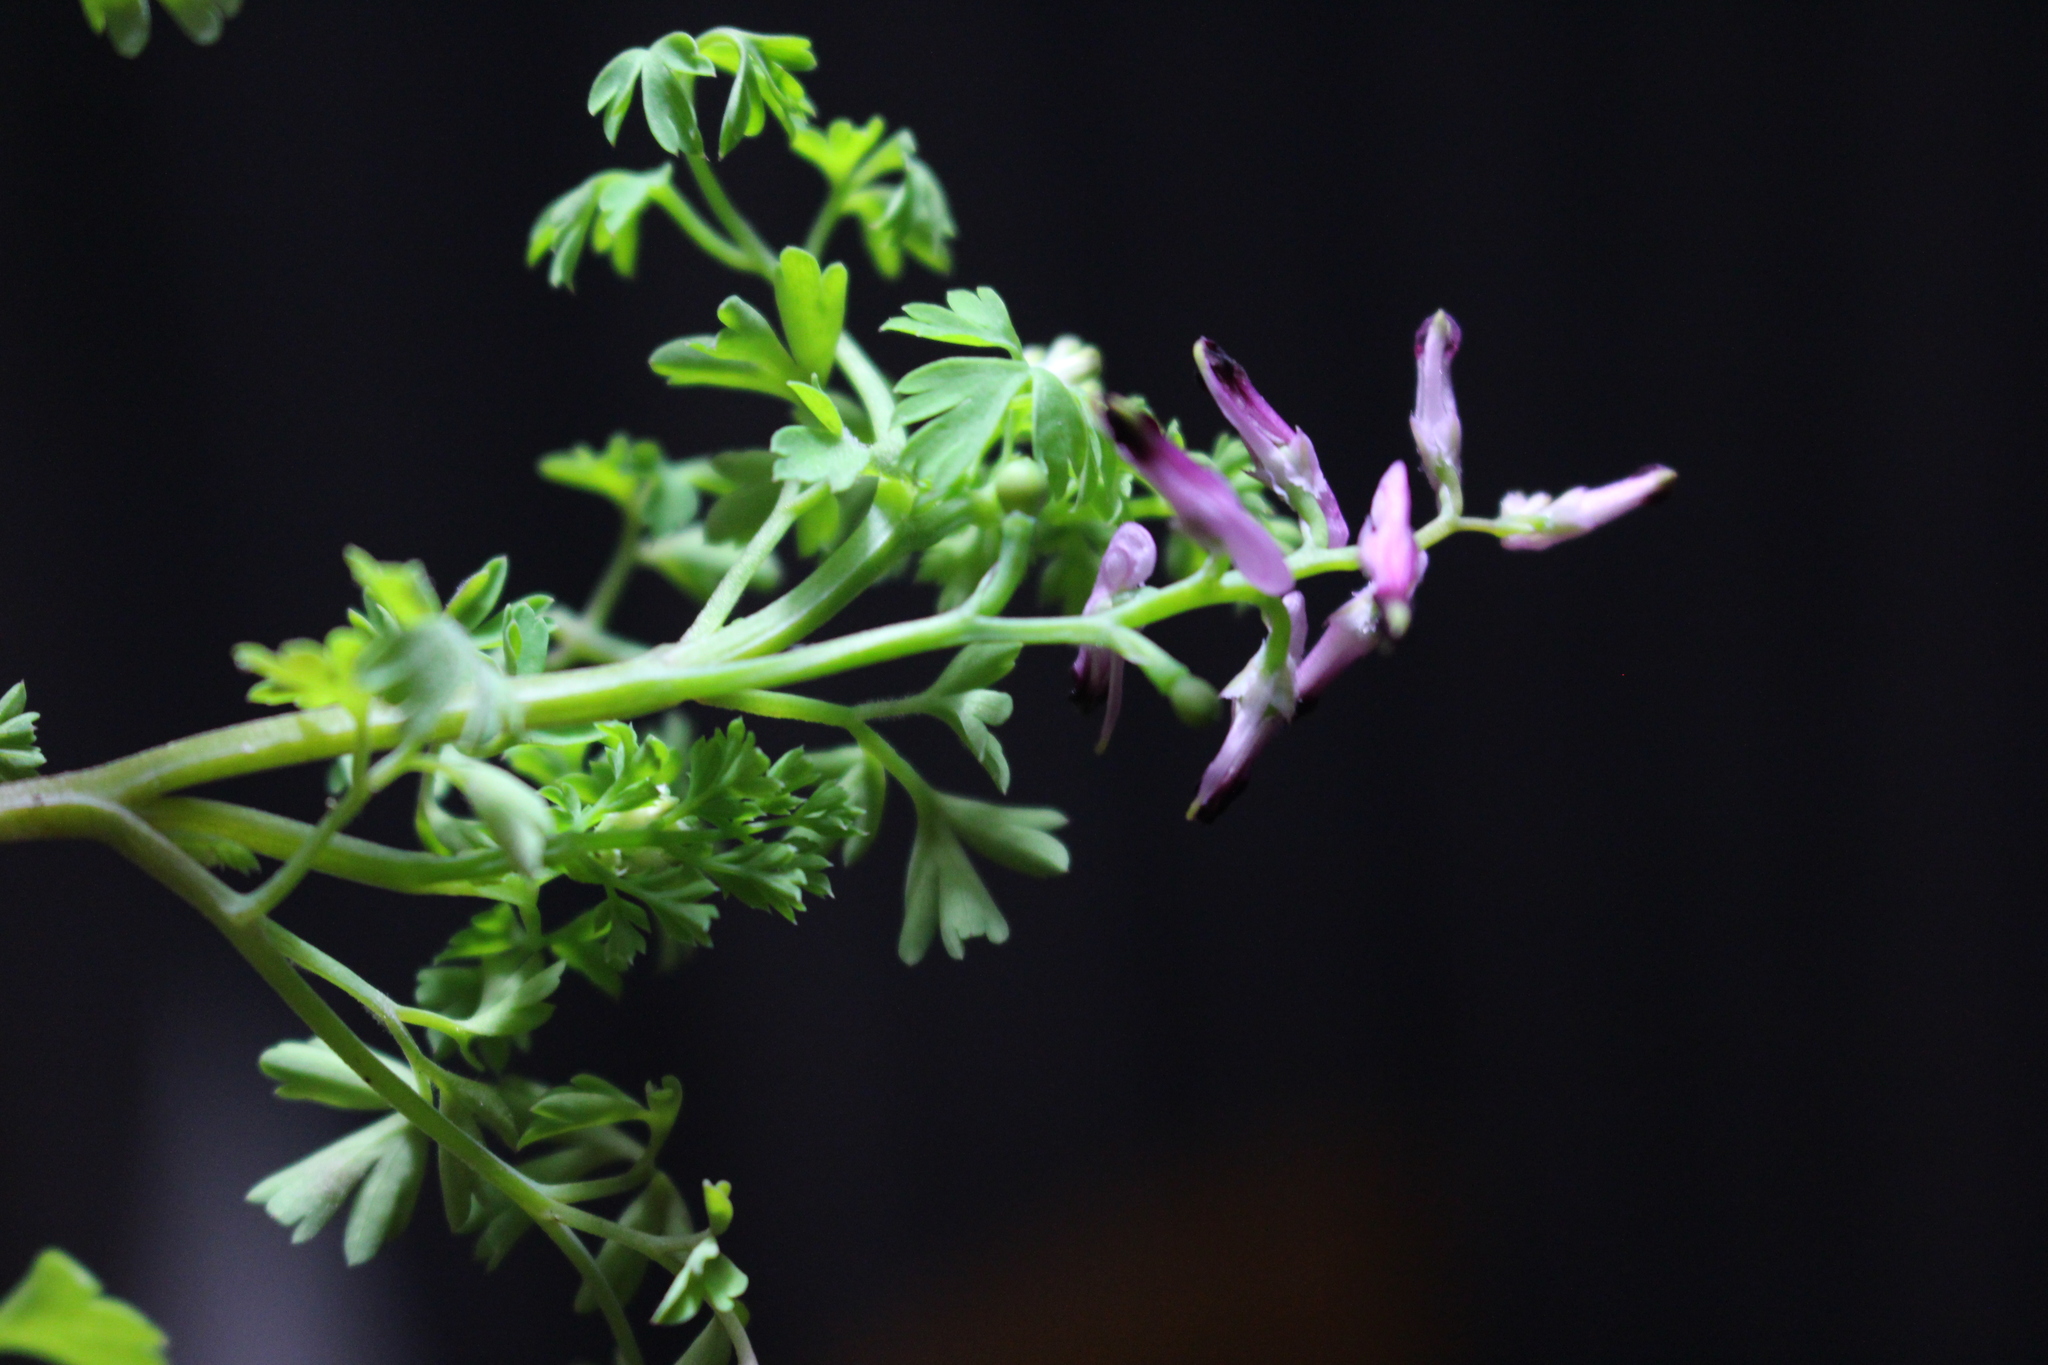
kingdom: Plantae
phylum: Tracheophyta
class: Magnoliopsida
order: Ranunculales
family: Papaveraceae
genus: Fumaria
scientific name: Fumaria muralis
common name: Common ramping-fumitory
